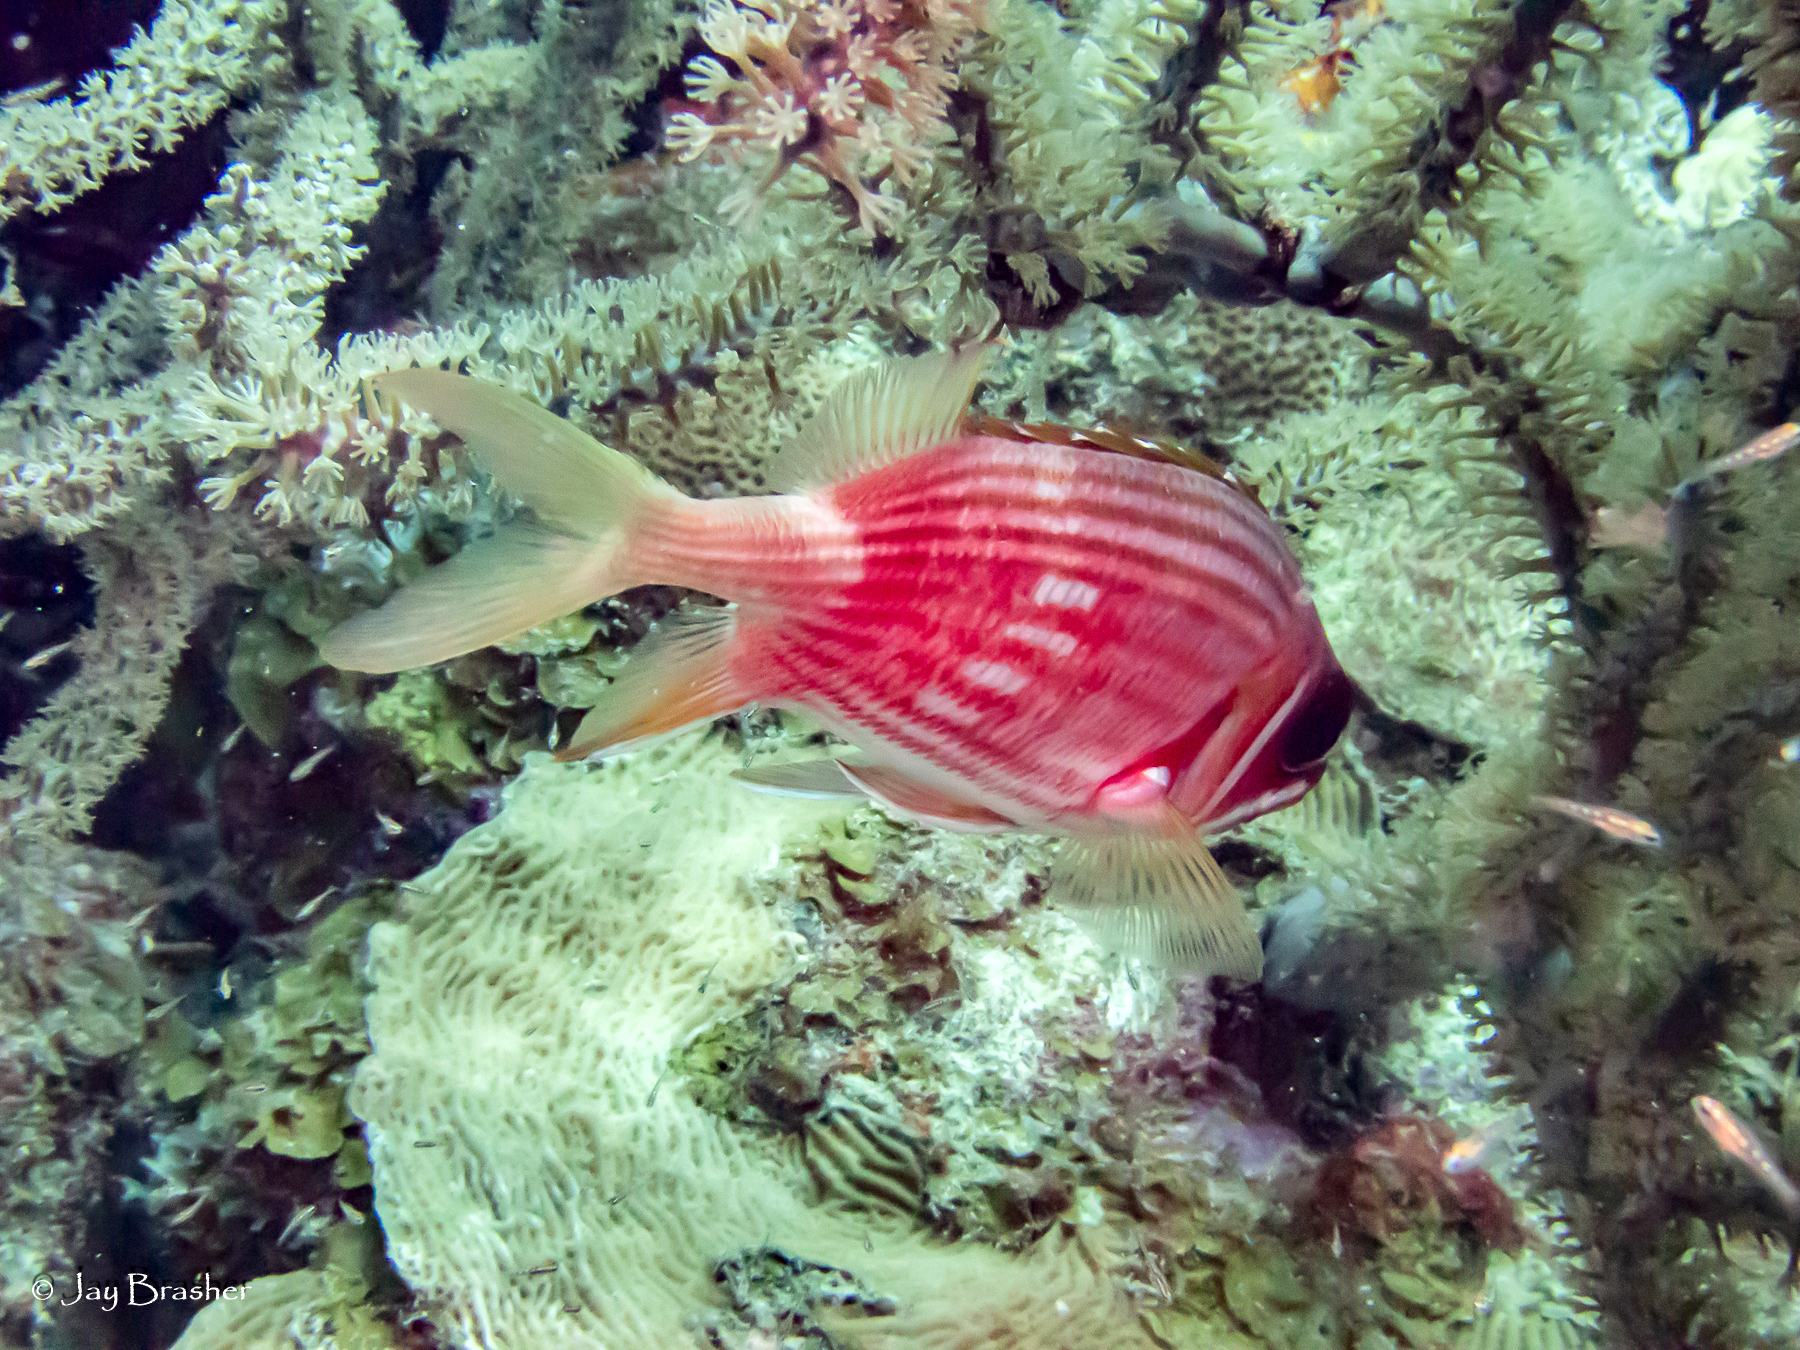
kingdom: Animalia
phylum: Chordata
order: Beryciformes
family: Holocentridae
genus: Holocentrus
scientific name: Holocentrus rufus
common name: Longspine squirrelfish
